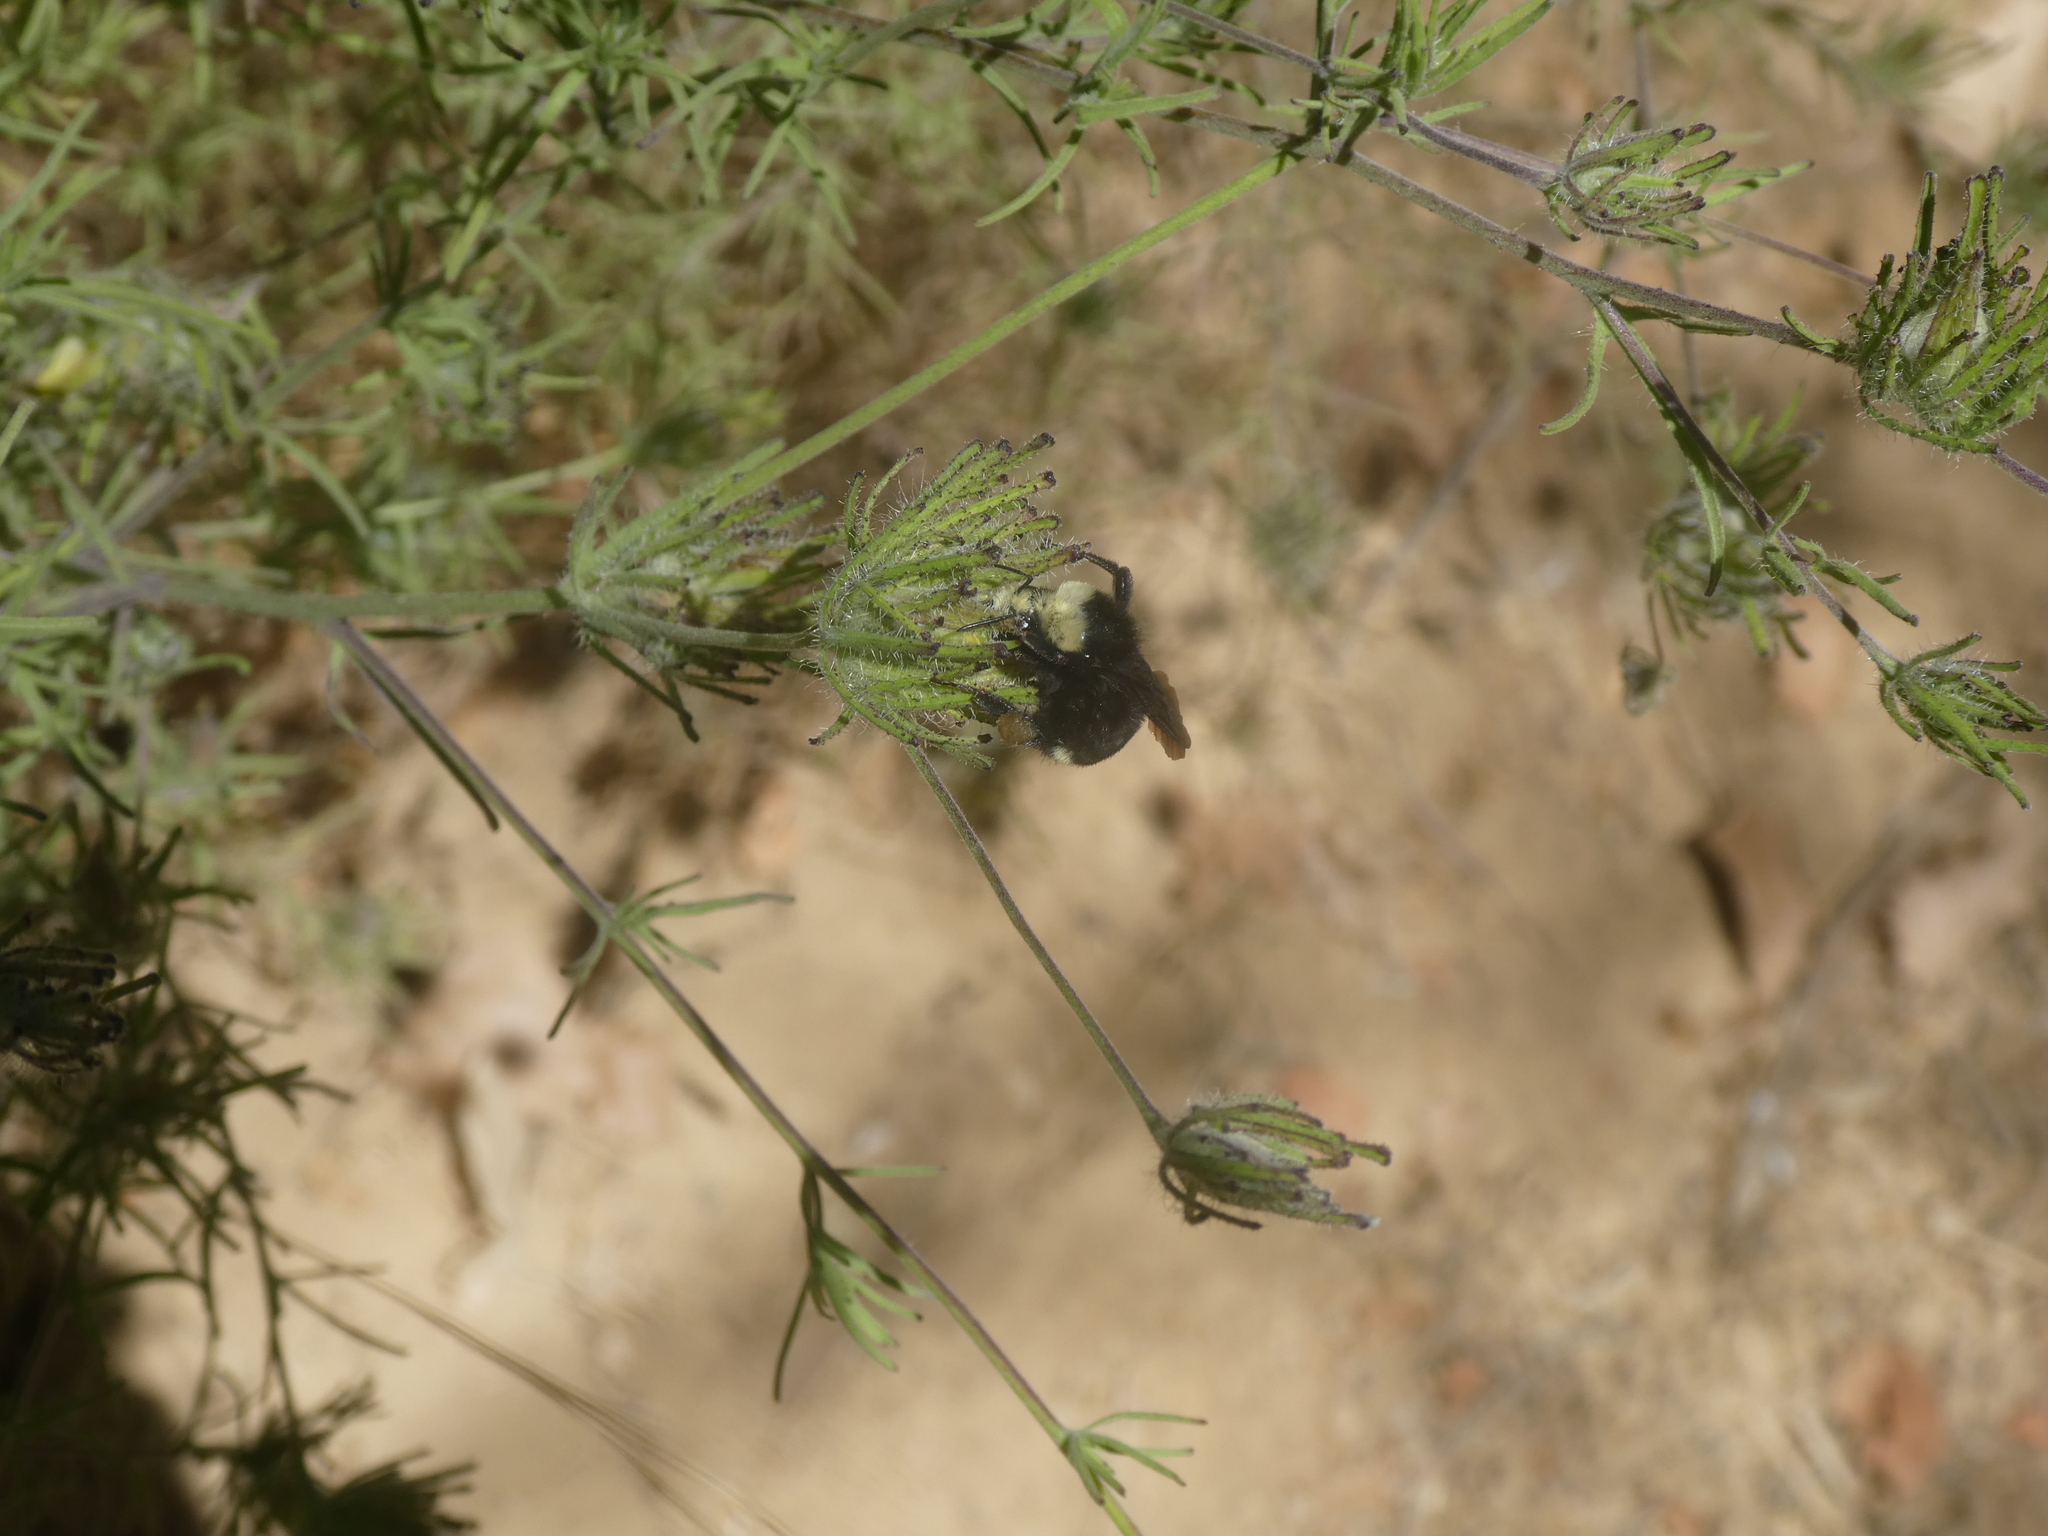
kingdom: Animalia
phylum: Arthropoda
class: Insecta
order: Hymenoptera
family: Apidae
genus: Bombus
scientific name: Bombus vosnesenskii
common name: Vosnesensky bumble bee
